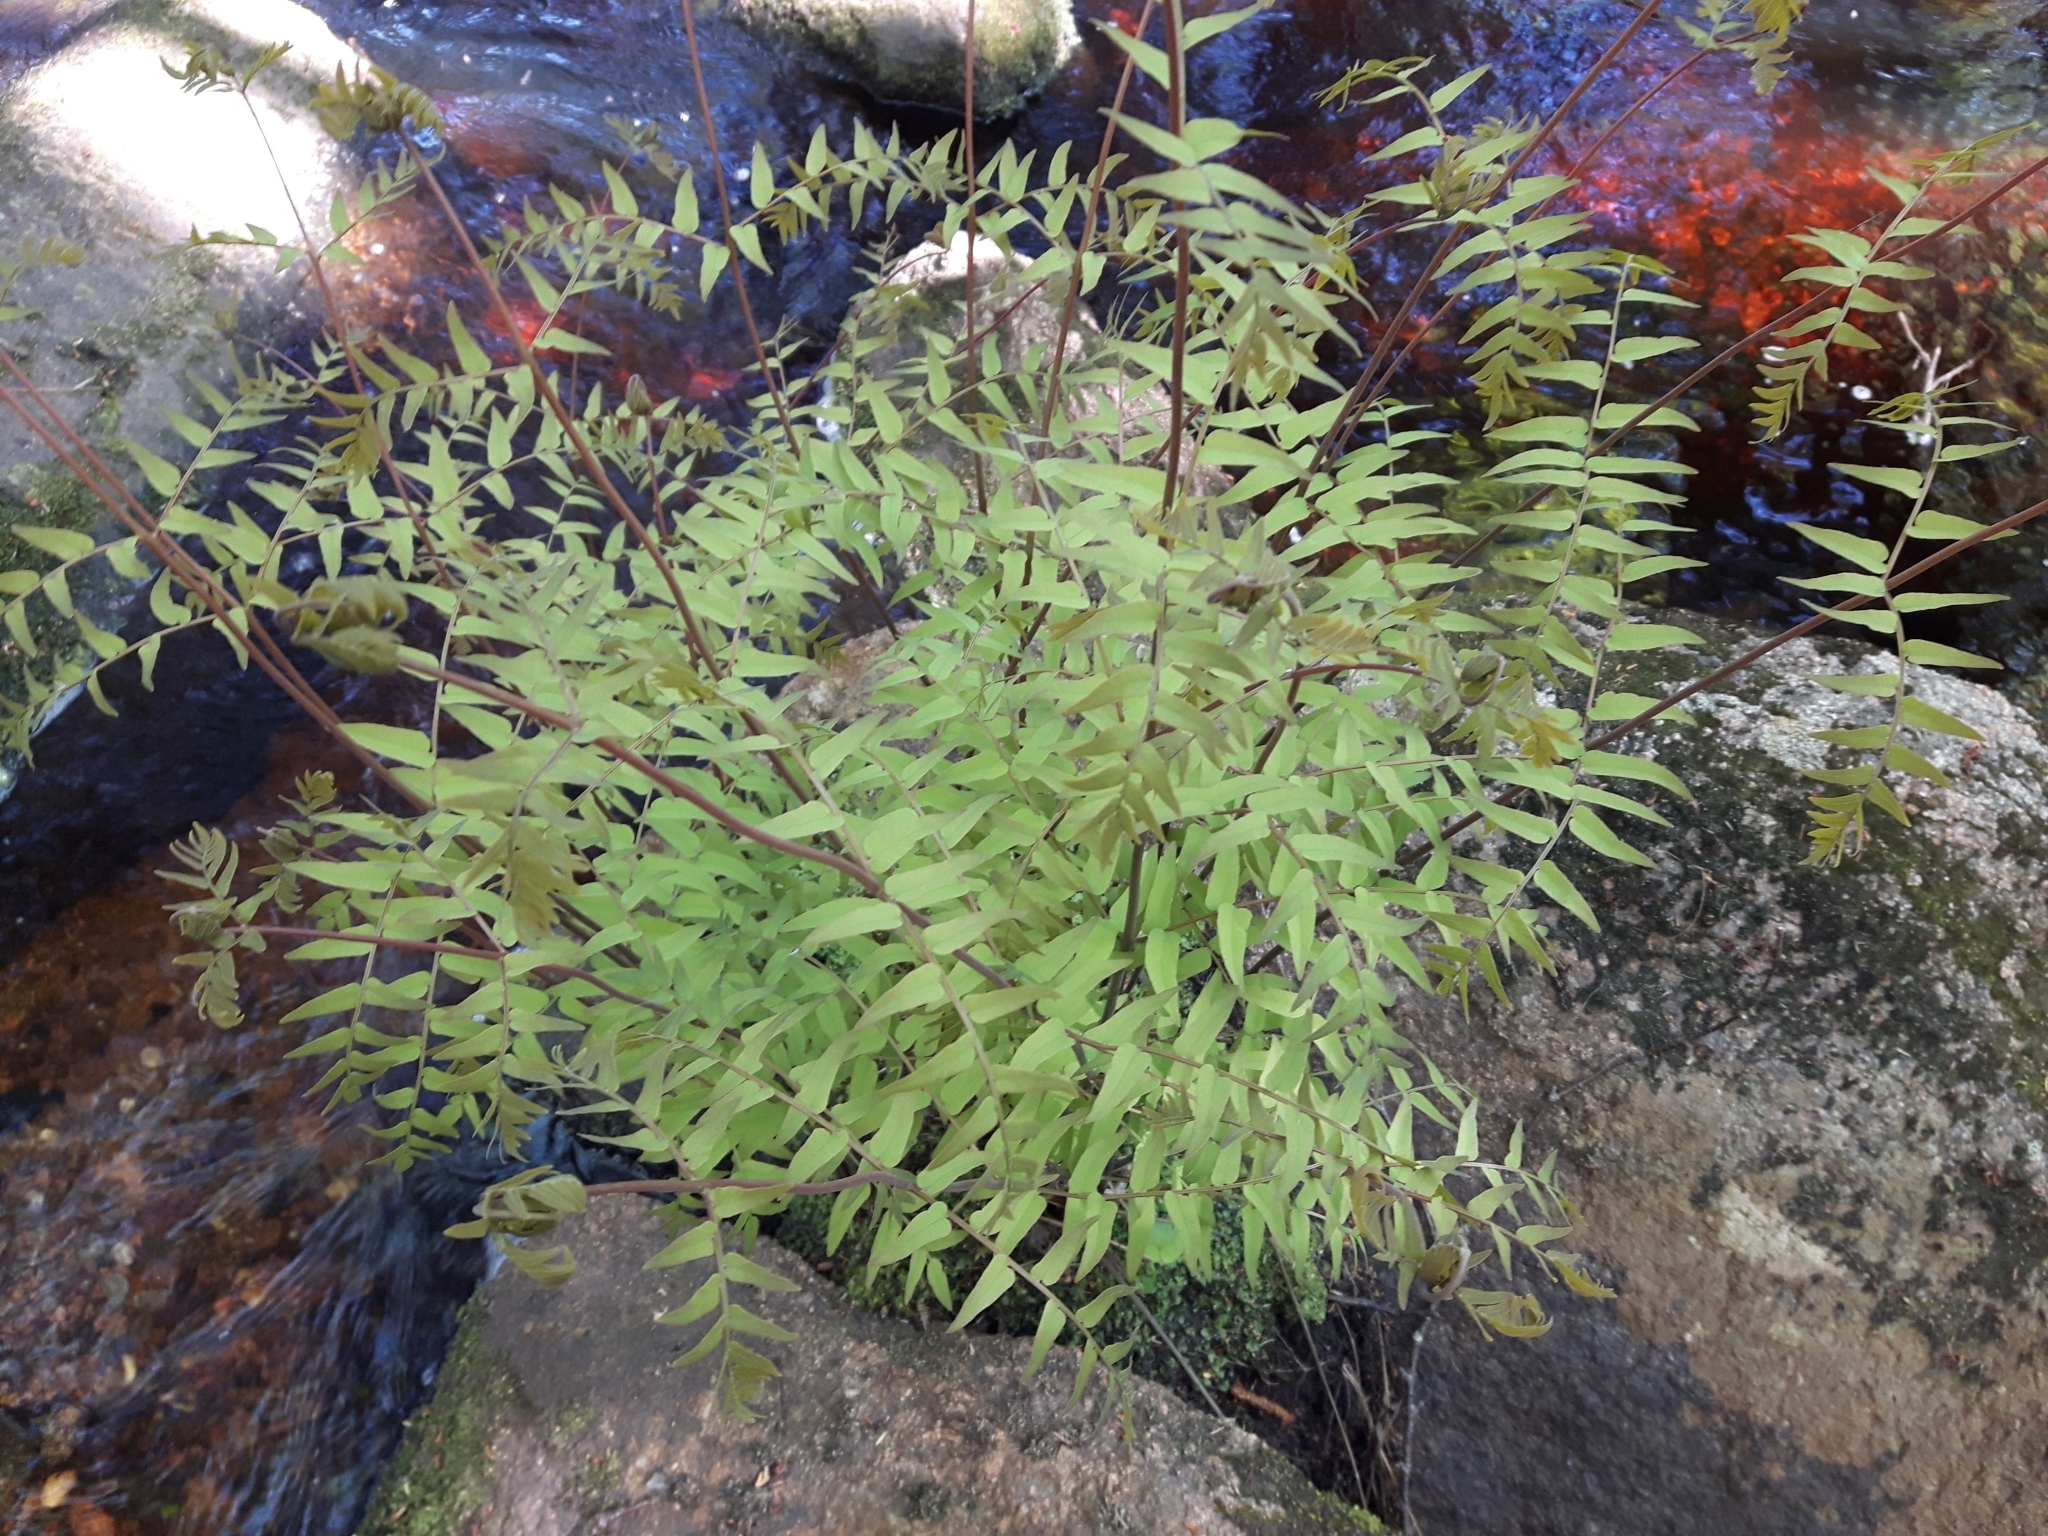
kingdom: Plantae
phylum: Tracheophyta
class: Polypodiopsida
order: Osmundales
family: Osmundaceae
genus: Osmunda
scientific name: Osmunda spectabilis
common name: American royal fern
